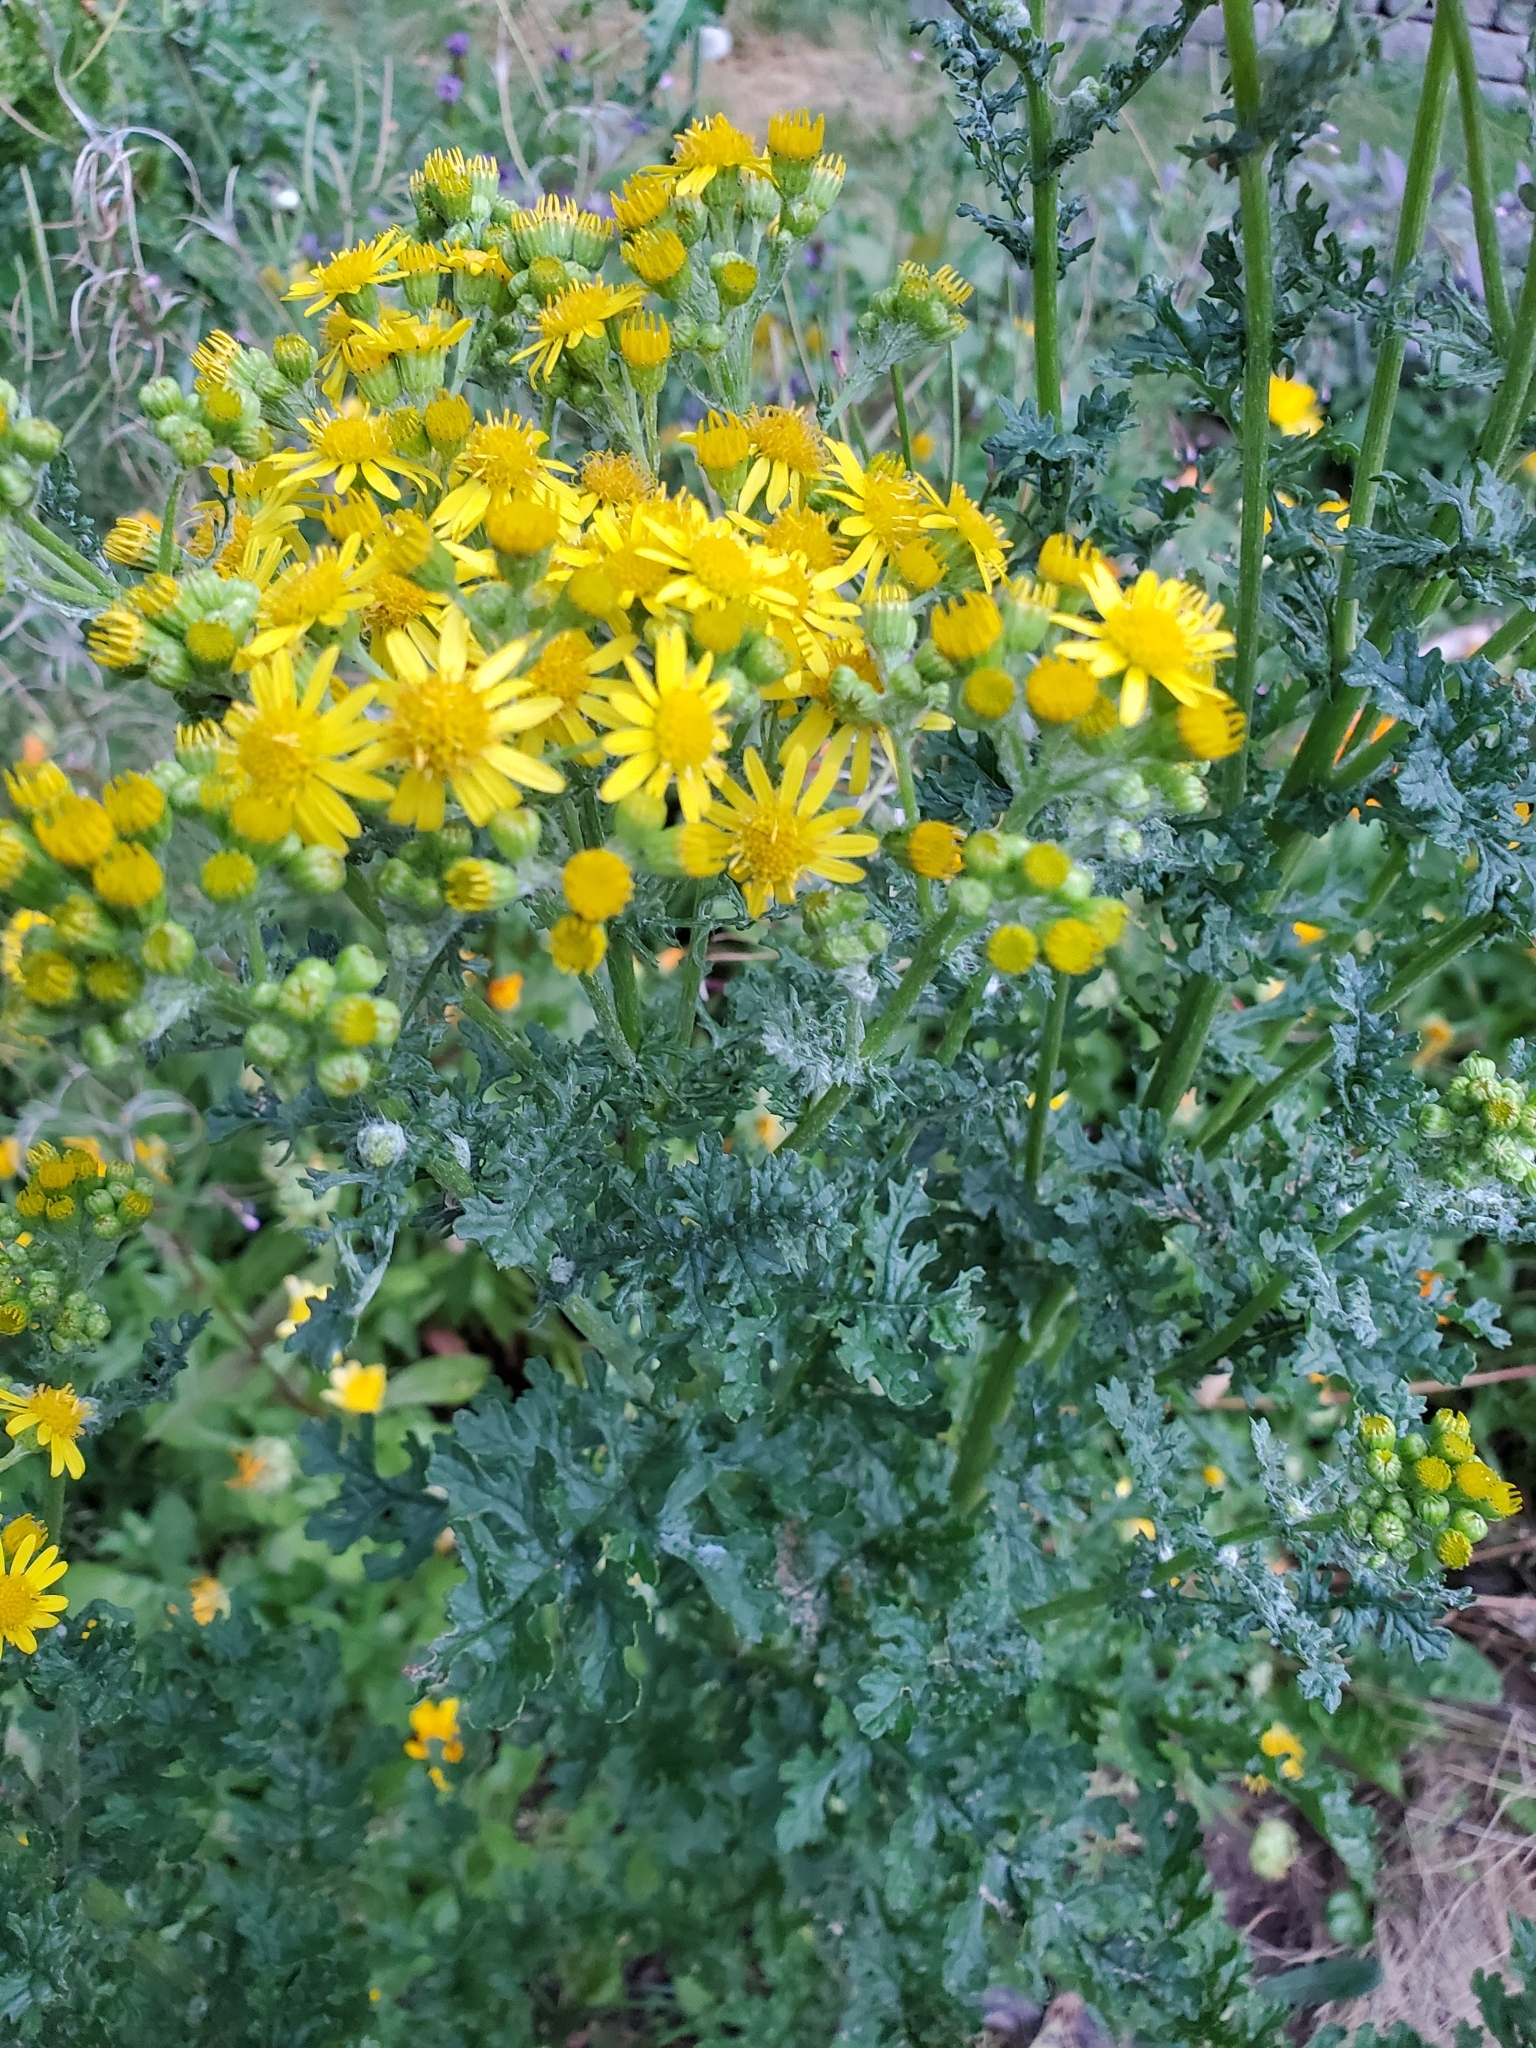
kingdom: Plantae
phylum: Tracheophyta
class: Magnoliopsida
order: Asterales
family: Asteraceae
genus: Jacobaea
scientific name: Jacobaea vulgaris
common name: Stinking willie
